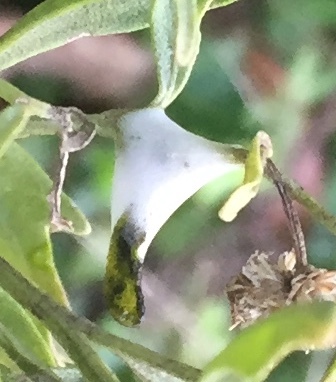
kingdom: Animalia
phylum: Arthropoda
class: Insecta
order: Hemiptera
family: Aphrophoridae
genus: Lepyronia
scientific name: Lepyronia quadrangularis
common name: Diamond-backed spittlebug
